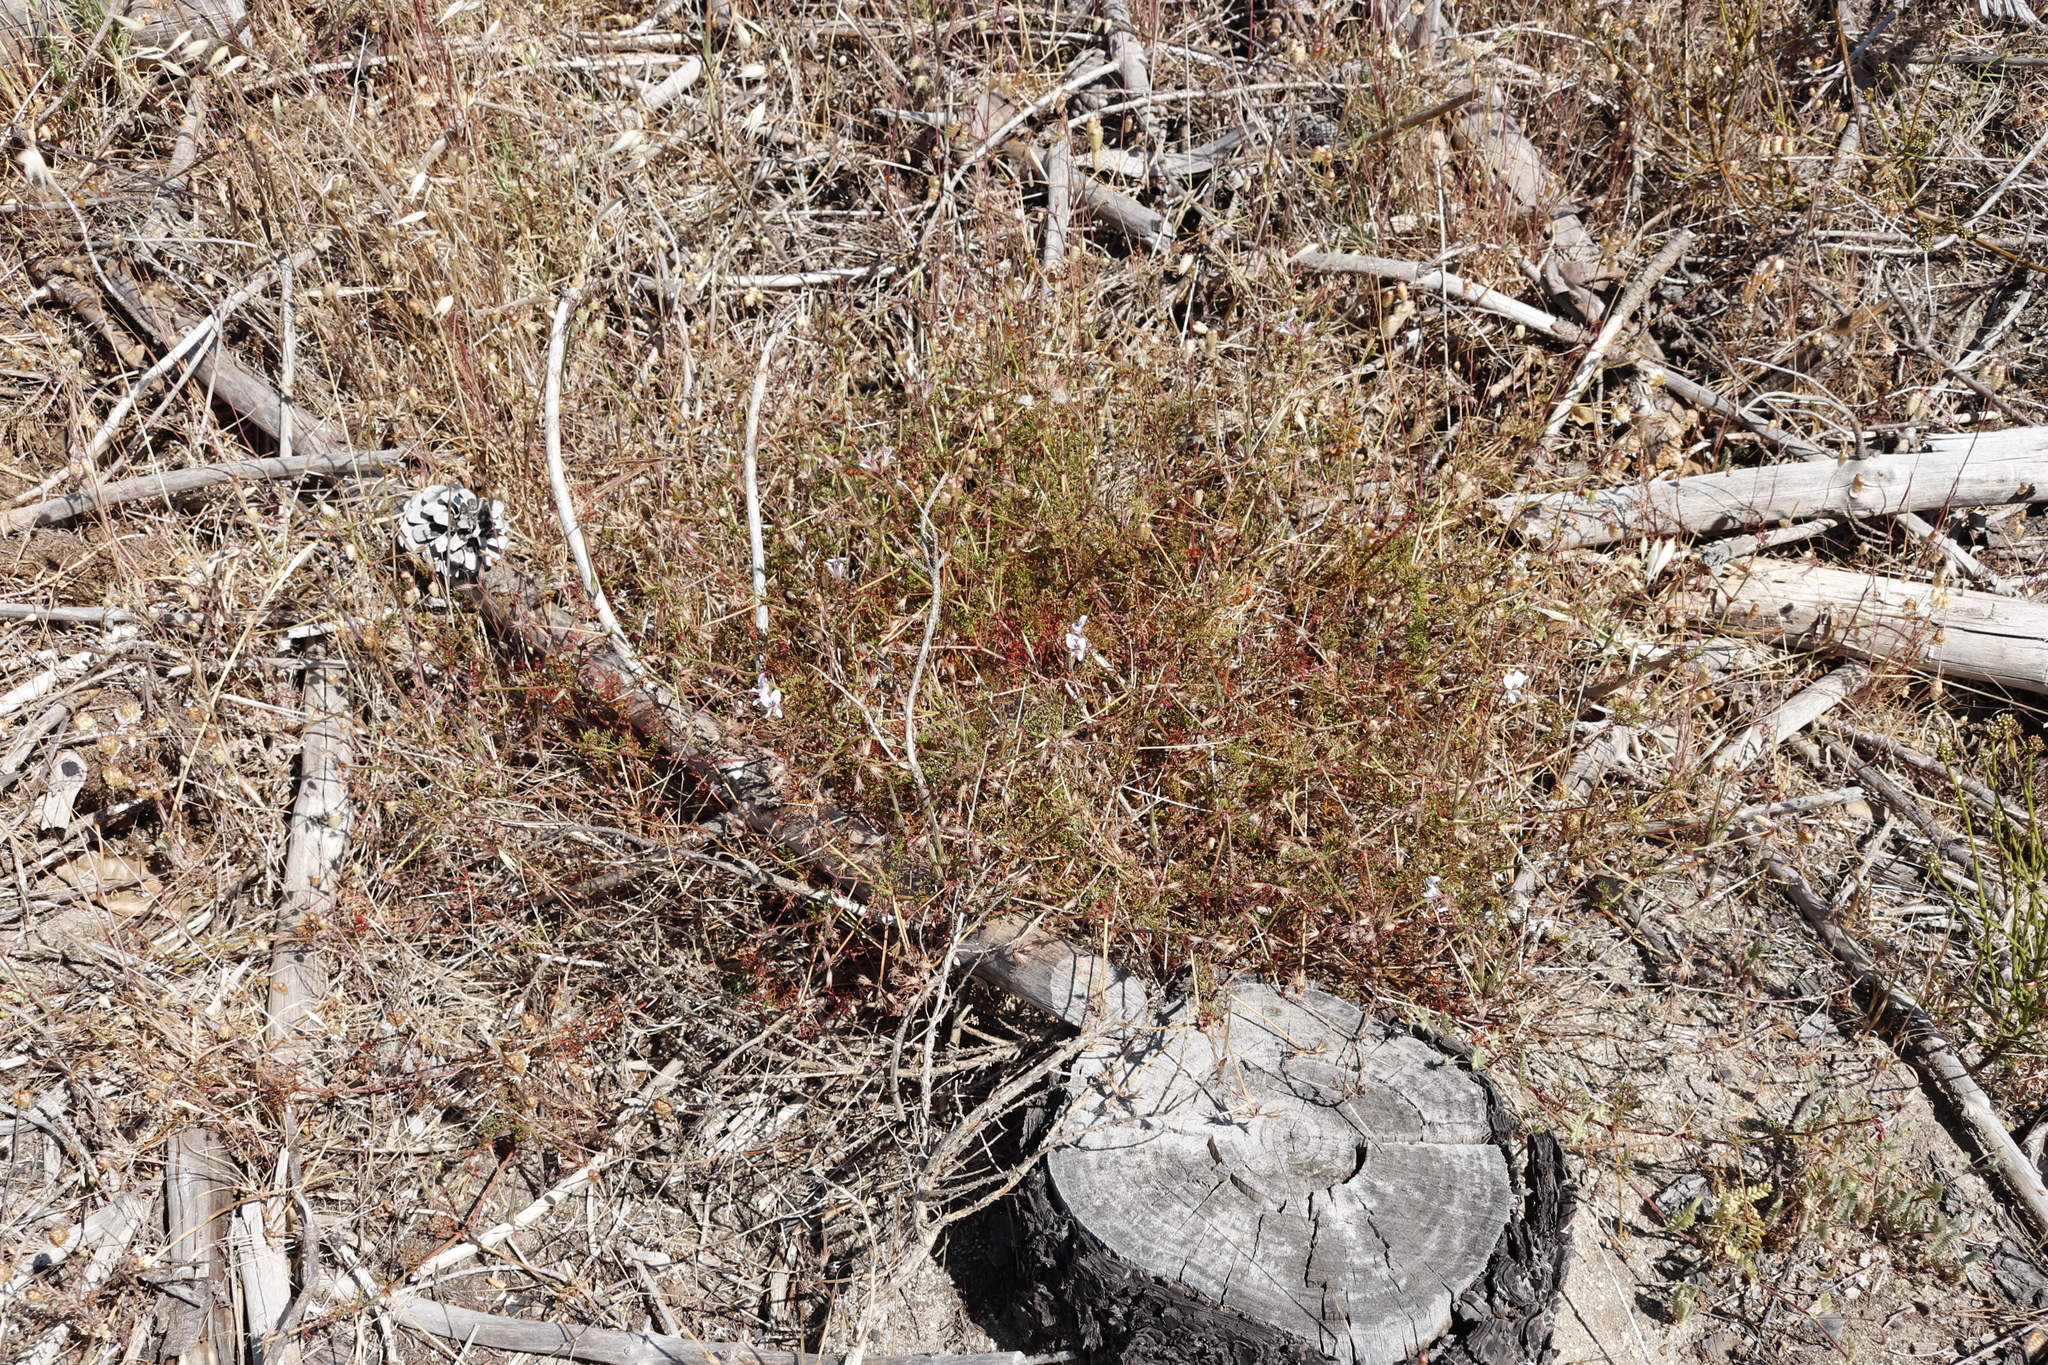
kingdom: Plantae
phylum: Tracheophyta
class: Magnoliopsida
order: Geraniales
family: Geraniaceae
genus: Pelargonium
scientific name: Pelargonium myrrhifolium
